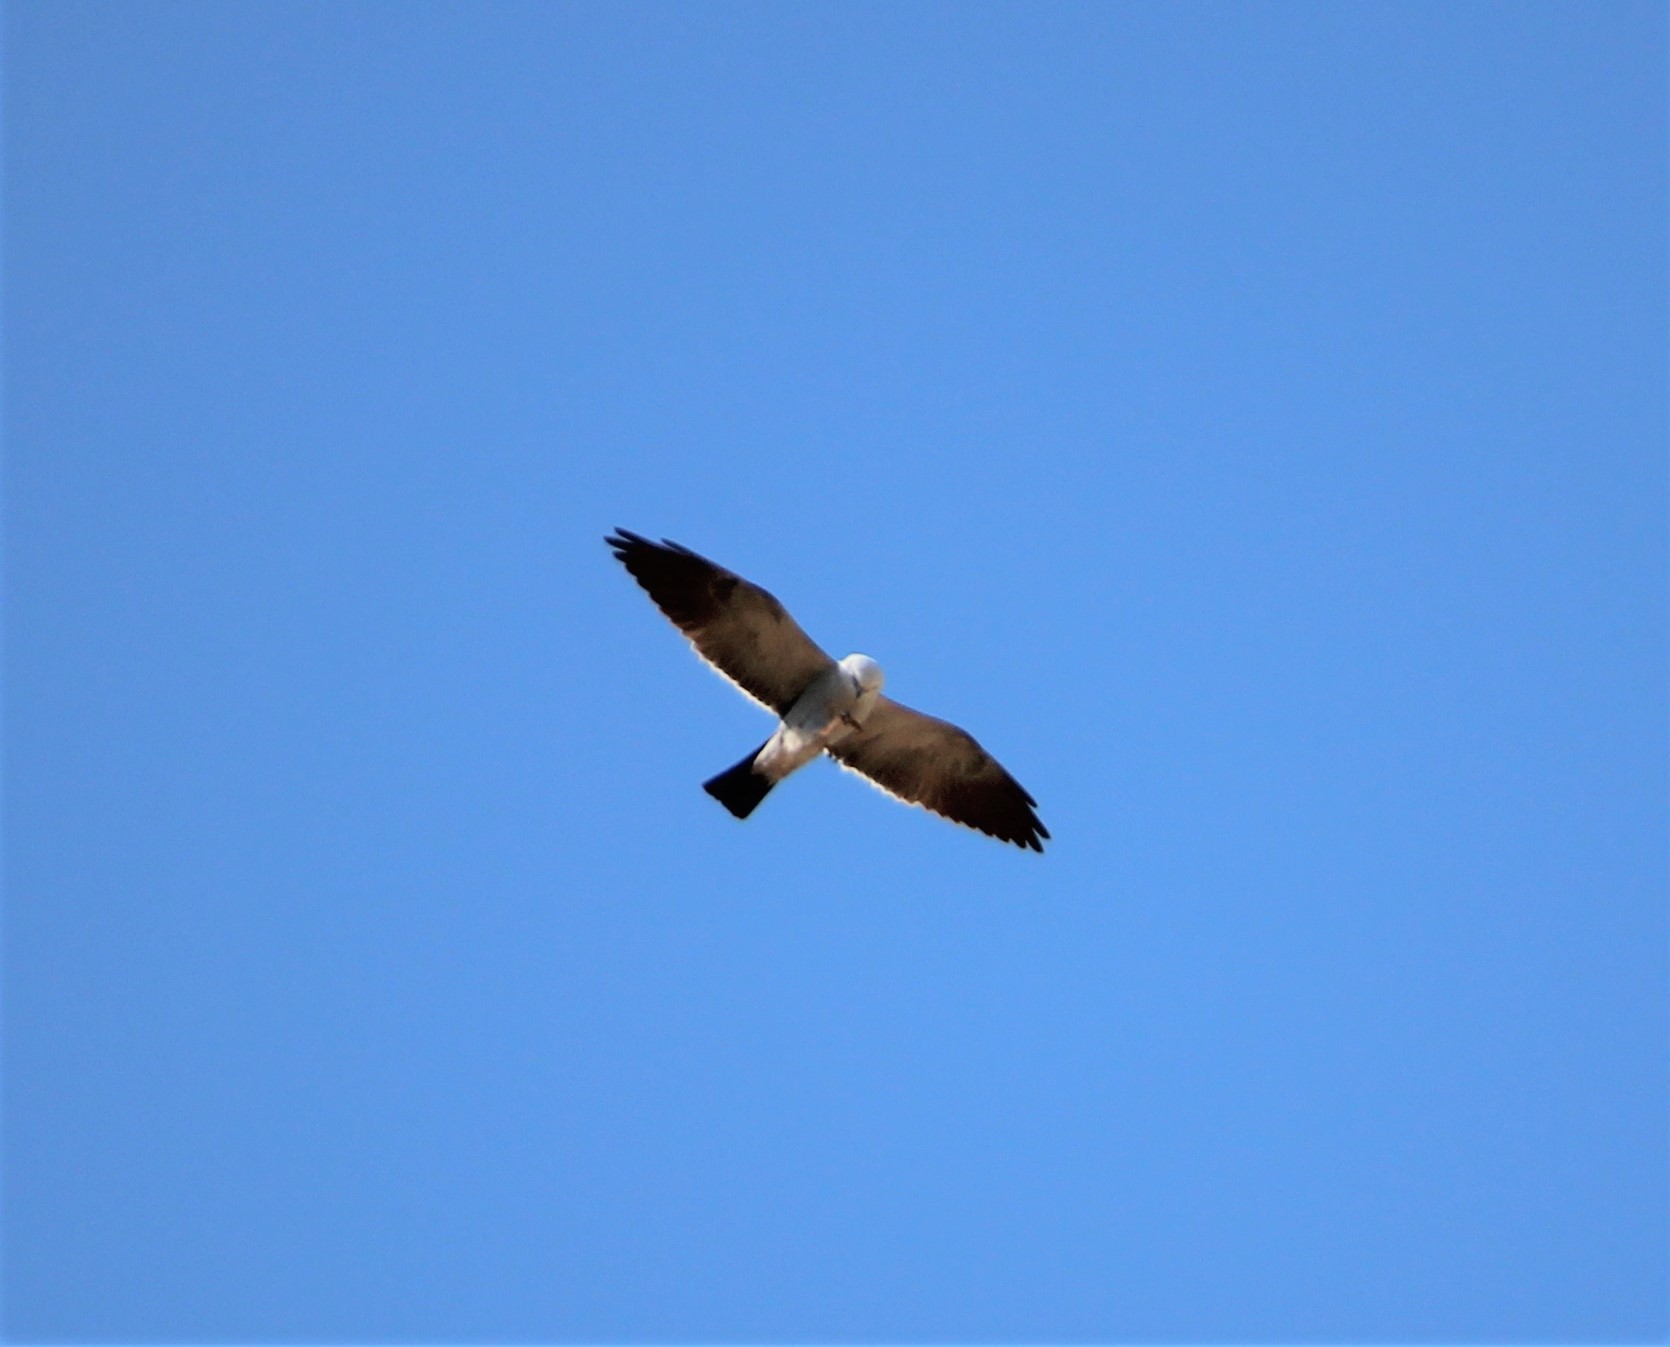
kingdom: Animalia
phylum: Chordata
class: Aves
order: Accipitriformes
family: Accipitridae
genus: Ictinia
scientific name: Ictinia mississippiensis
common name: Mississippi kite
